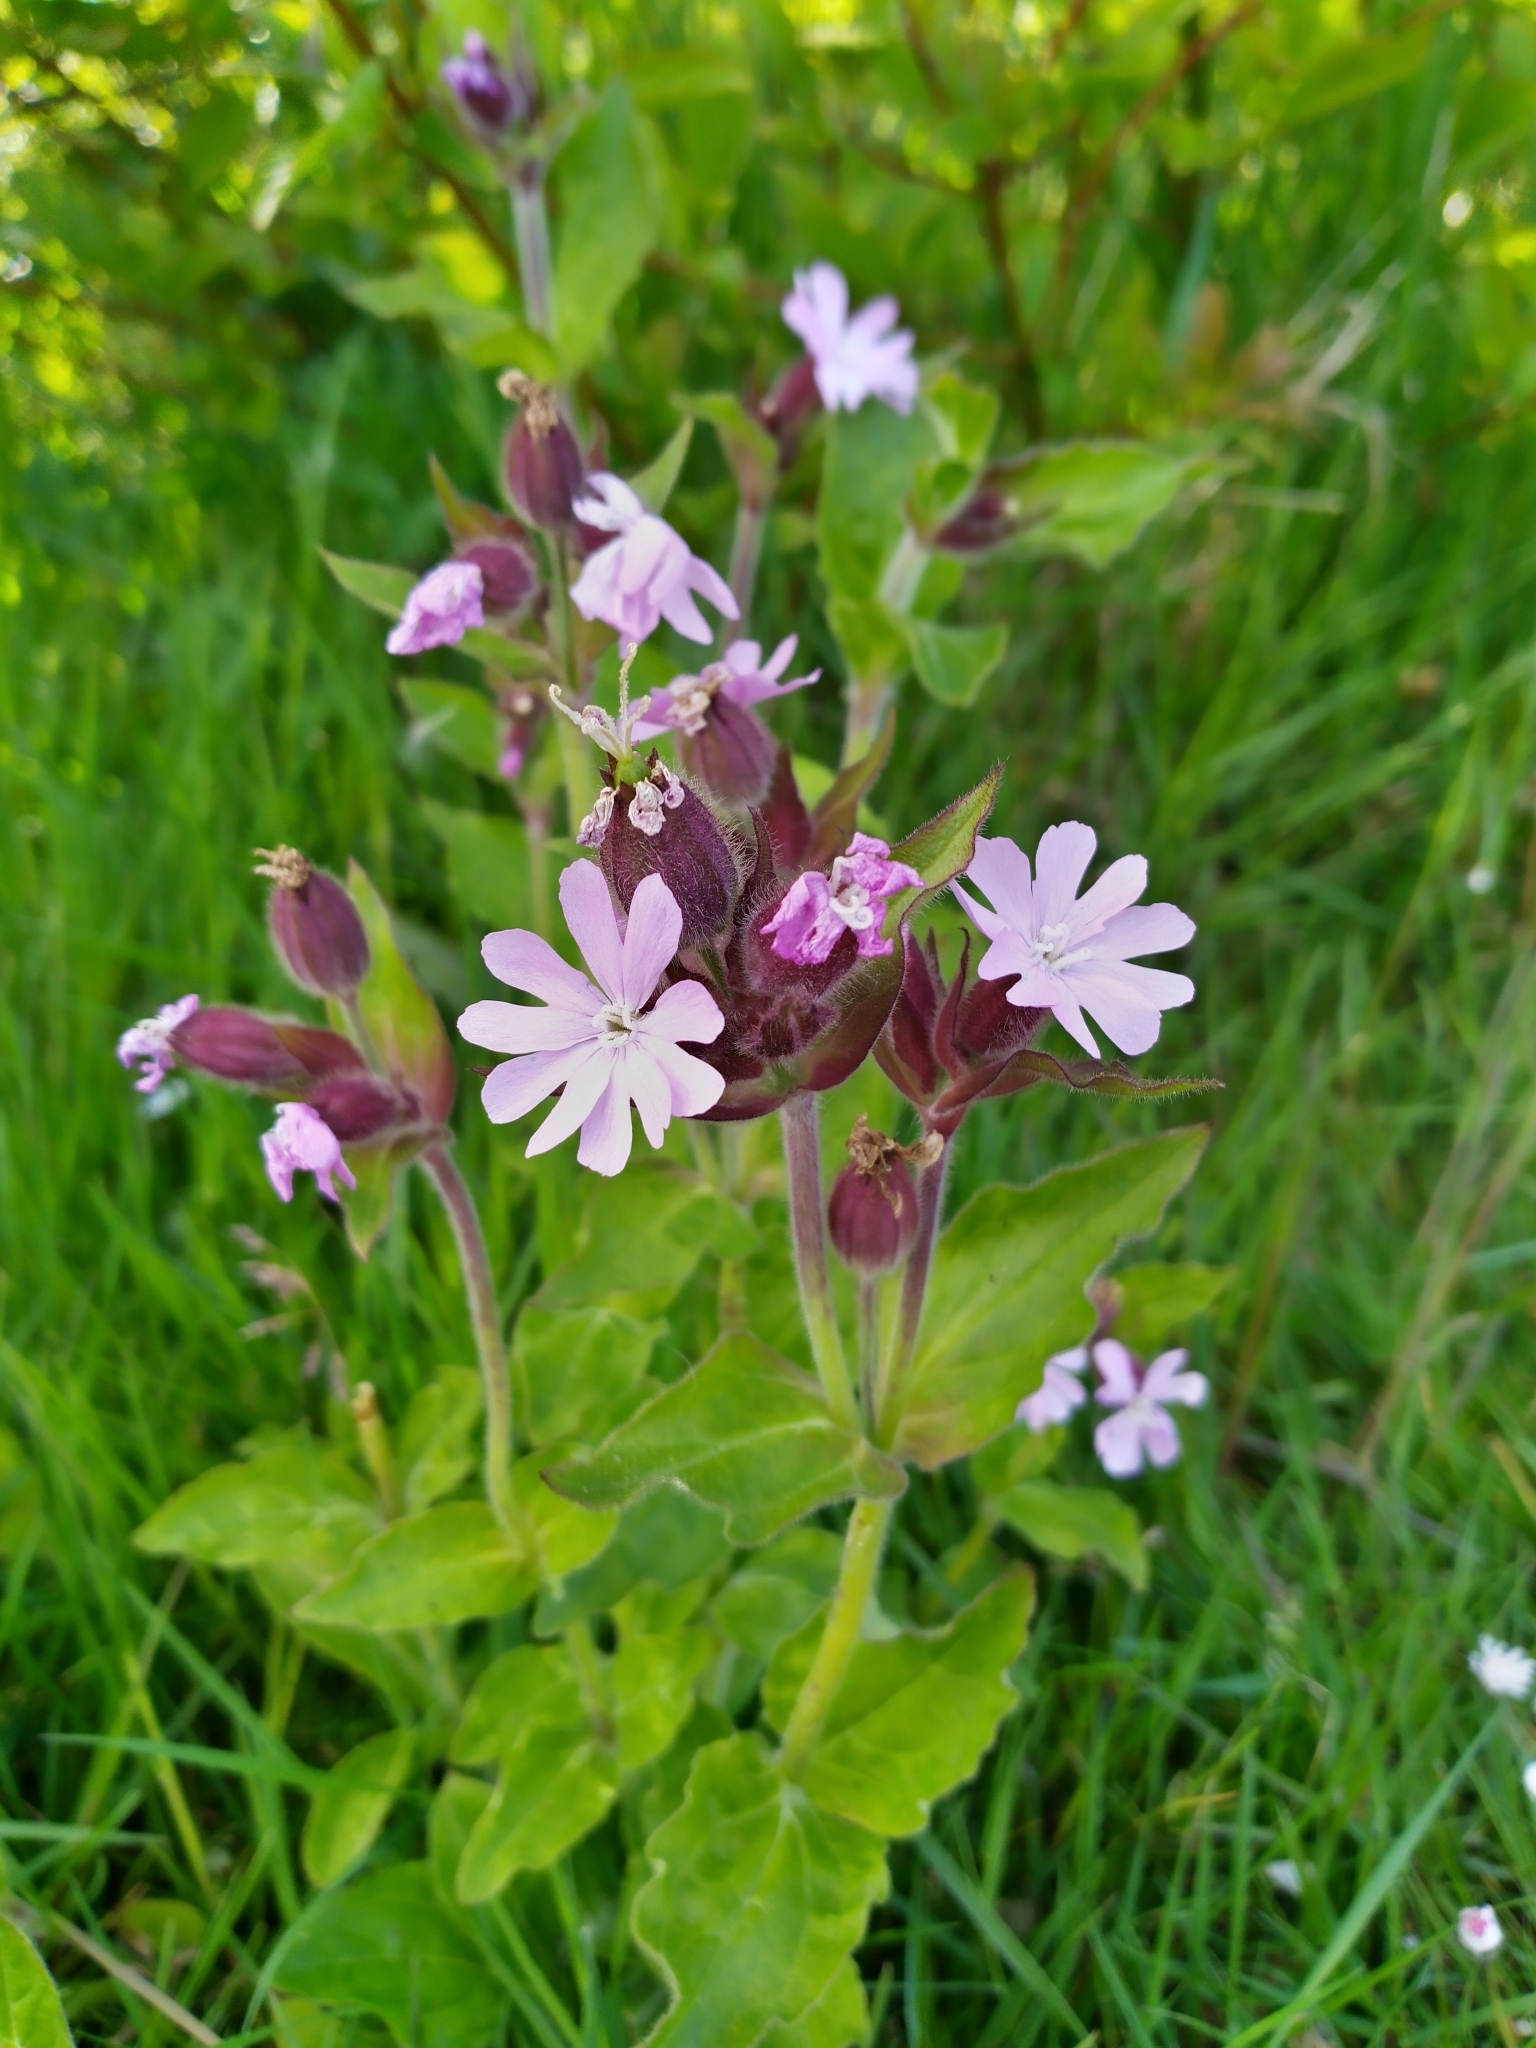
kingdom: Plantae
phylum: Tracheophyta
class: Magnoliopsida
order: Caryophyllales
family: Caryophyllaceae
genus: Silene
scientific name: Silene dioica
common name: Red campion
